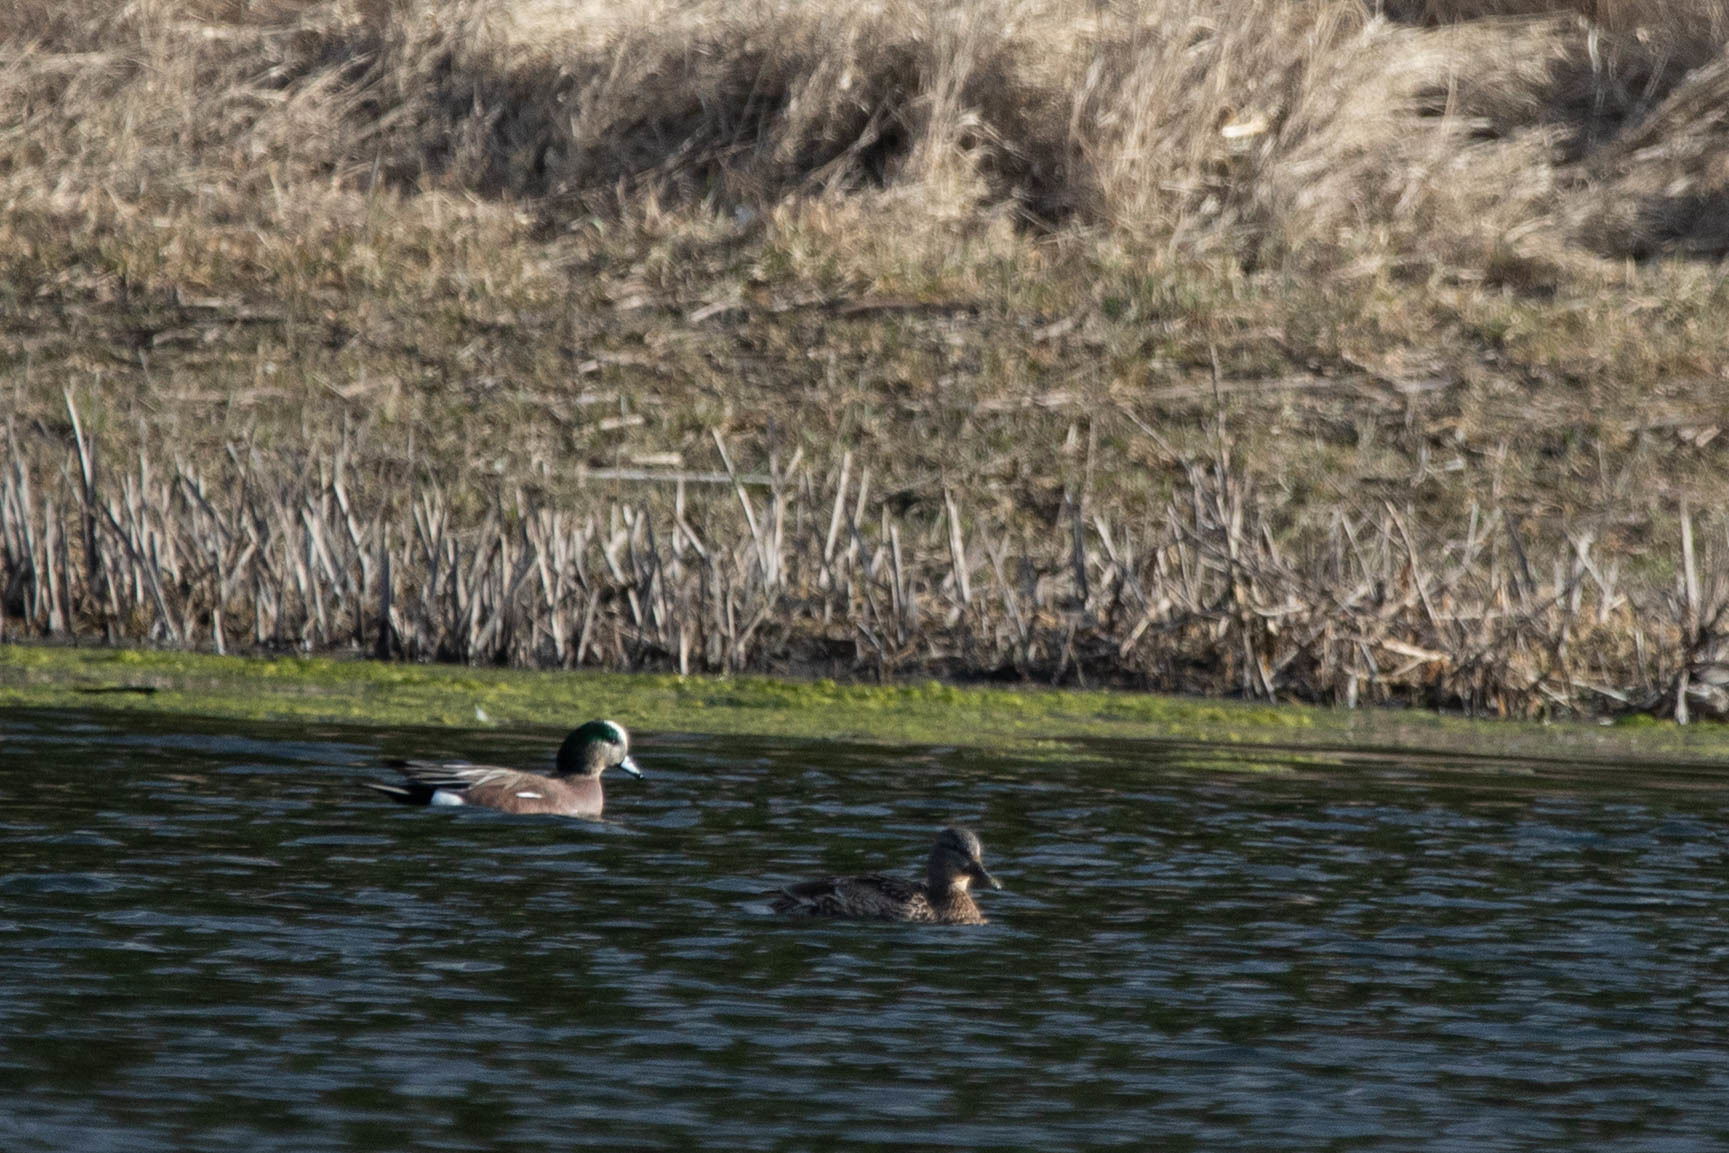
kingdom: Animalia
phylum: Chordata
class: Aves
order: Anseriformes
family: Anatidae
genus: Mareca
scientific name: Mareca americana
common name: American wigeon
